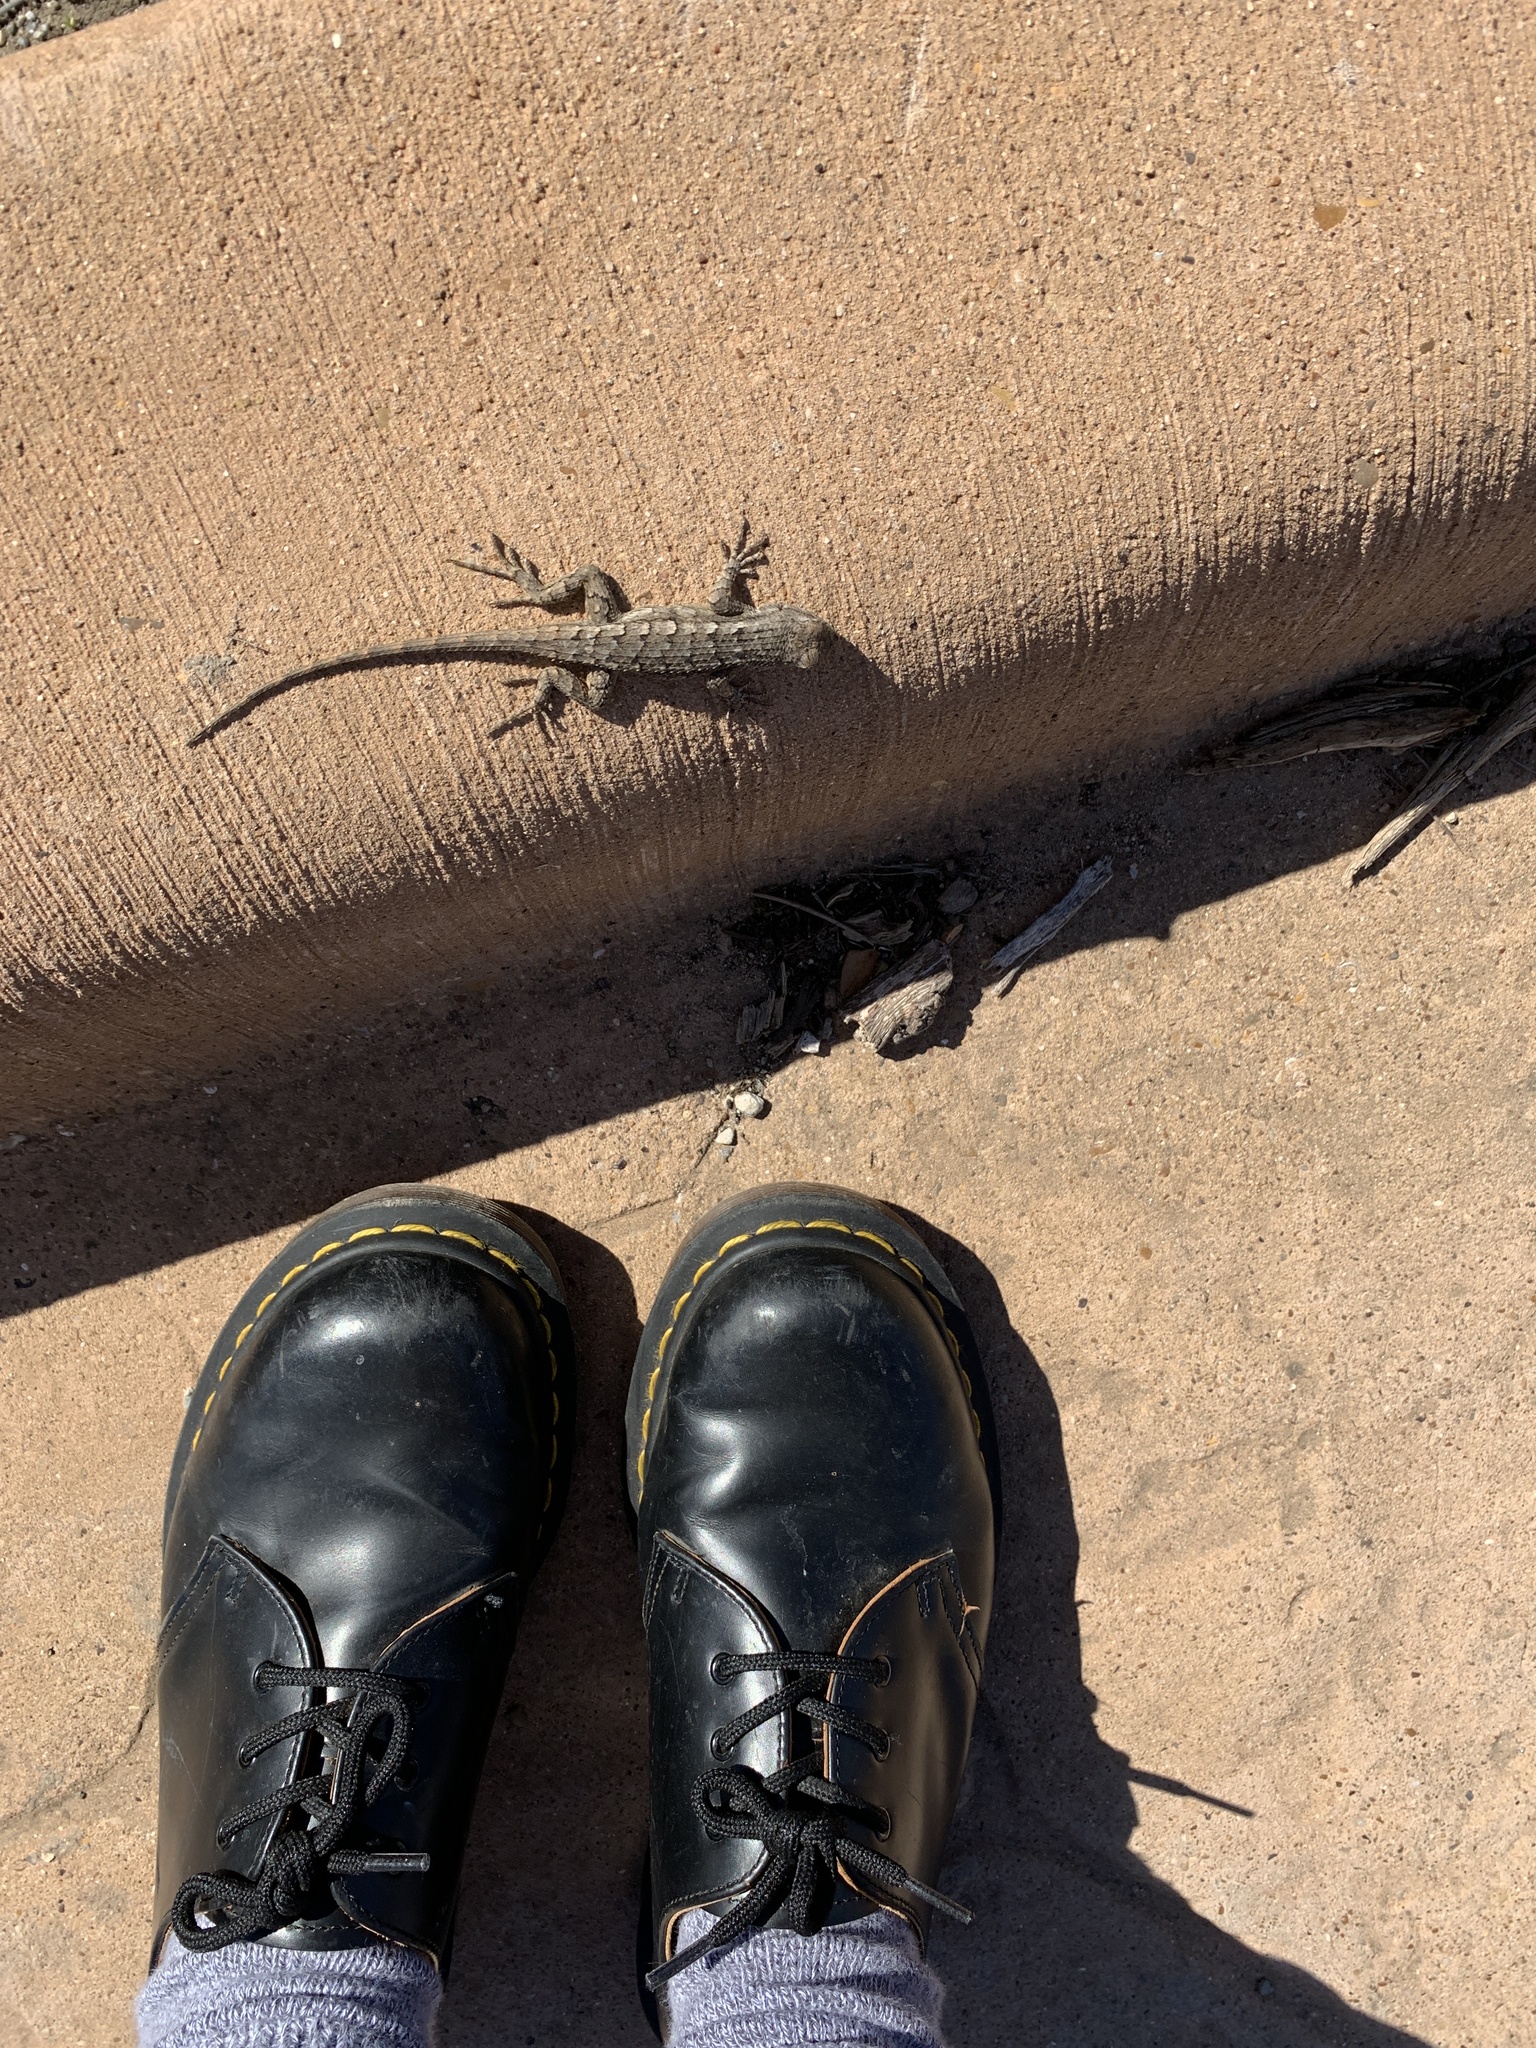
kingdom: Animalia
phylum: Chordata
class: Squamata
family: Phrynosomatidae
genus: Sceloporus
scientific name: Sceloporus olivaceus
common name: Texas spiny lizard
